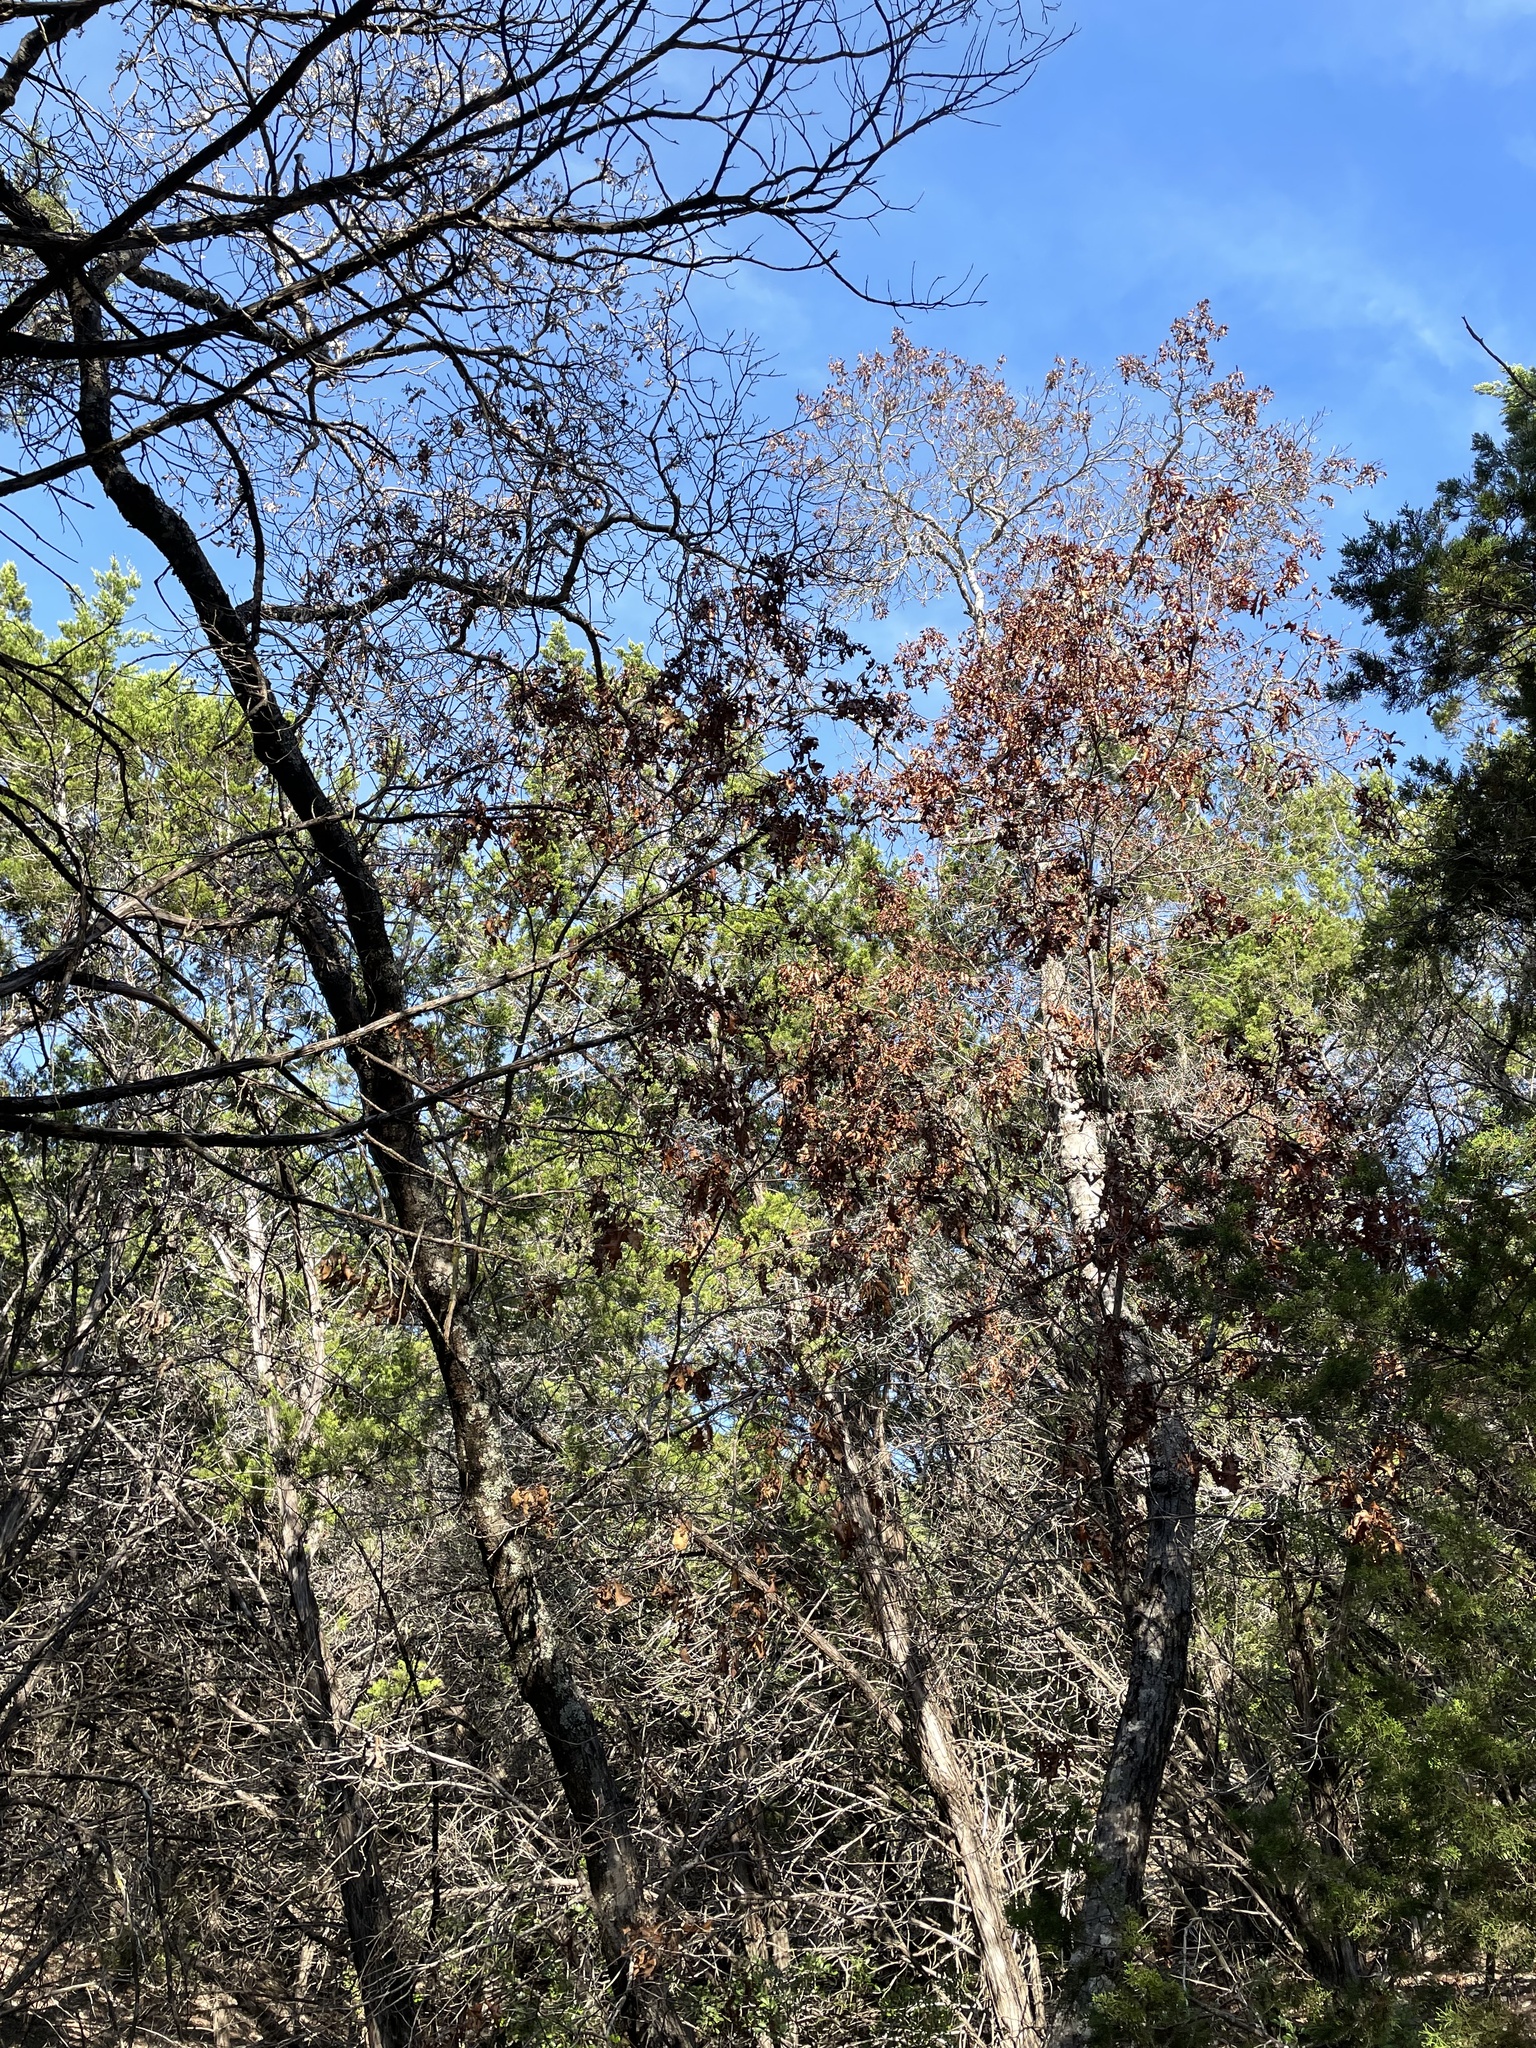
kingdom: Plantae
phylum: Tracheophyta
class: Magnoliopsida
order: Fagales
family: Fagaceae
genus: Quercus
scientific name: Quercus buckleyi
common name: Buckley oak
